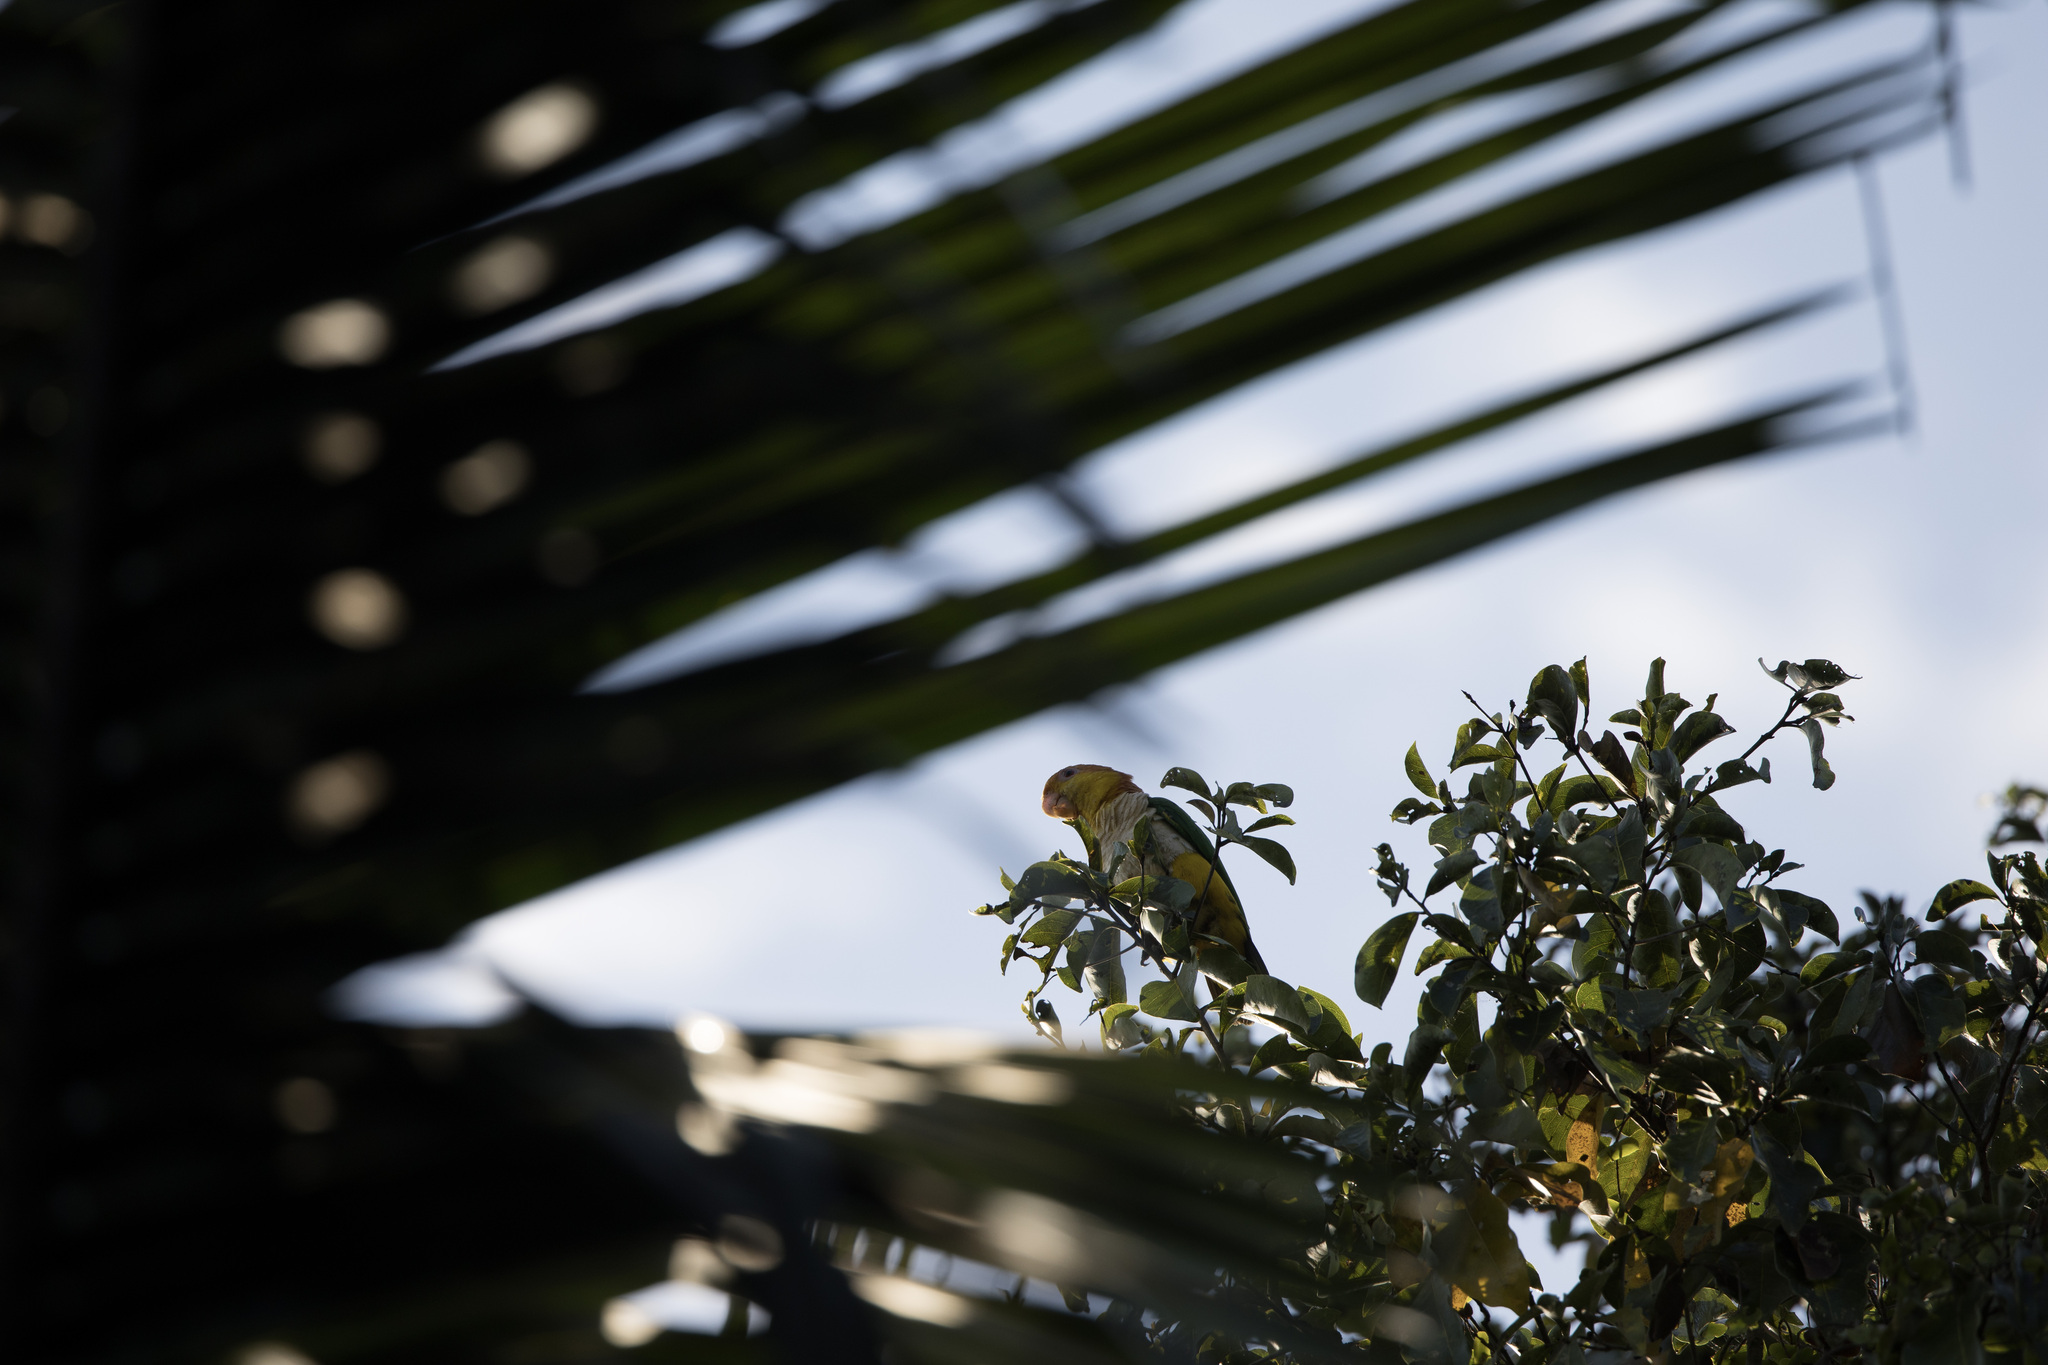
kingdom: Animalia
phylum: Chordata
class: Aves
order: Psittaciformes
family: Psittacidae
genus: Pionites
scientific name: Pionites leucogaster
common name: White-bellied parrot
